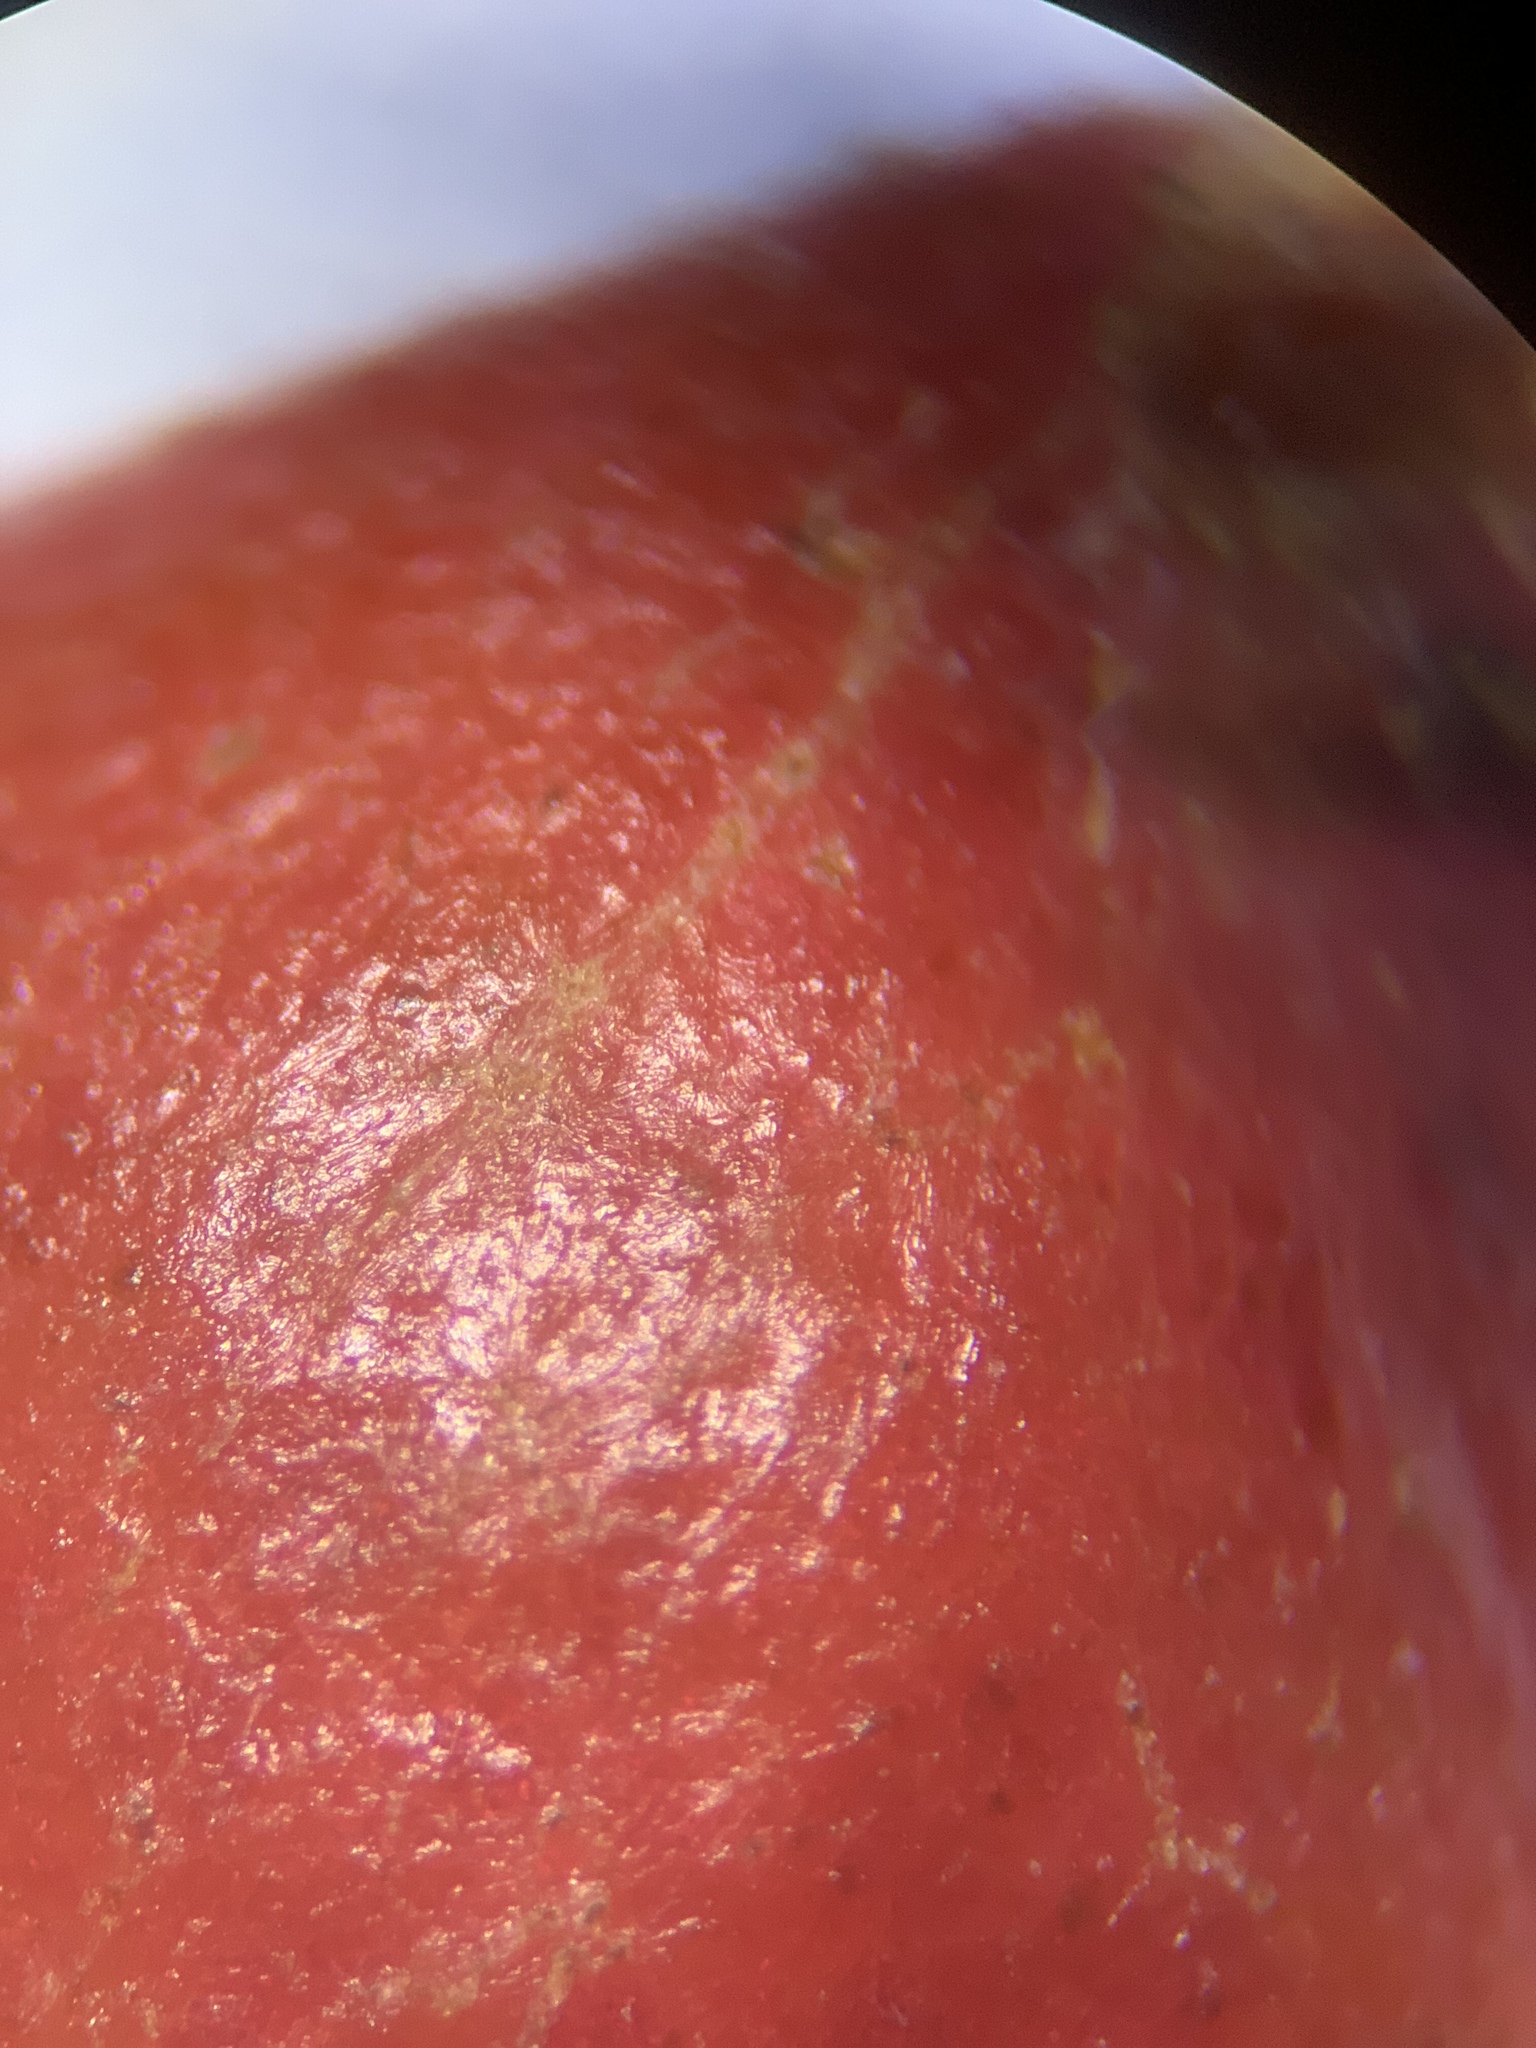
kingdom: Animalia
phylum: Arthropoda
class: Insecta
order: Hymenoptera
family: Cynipidae
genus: Andricus
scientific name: Andricus
